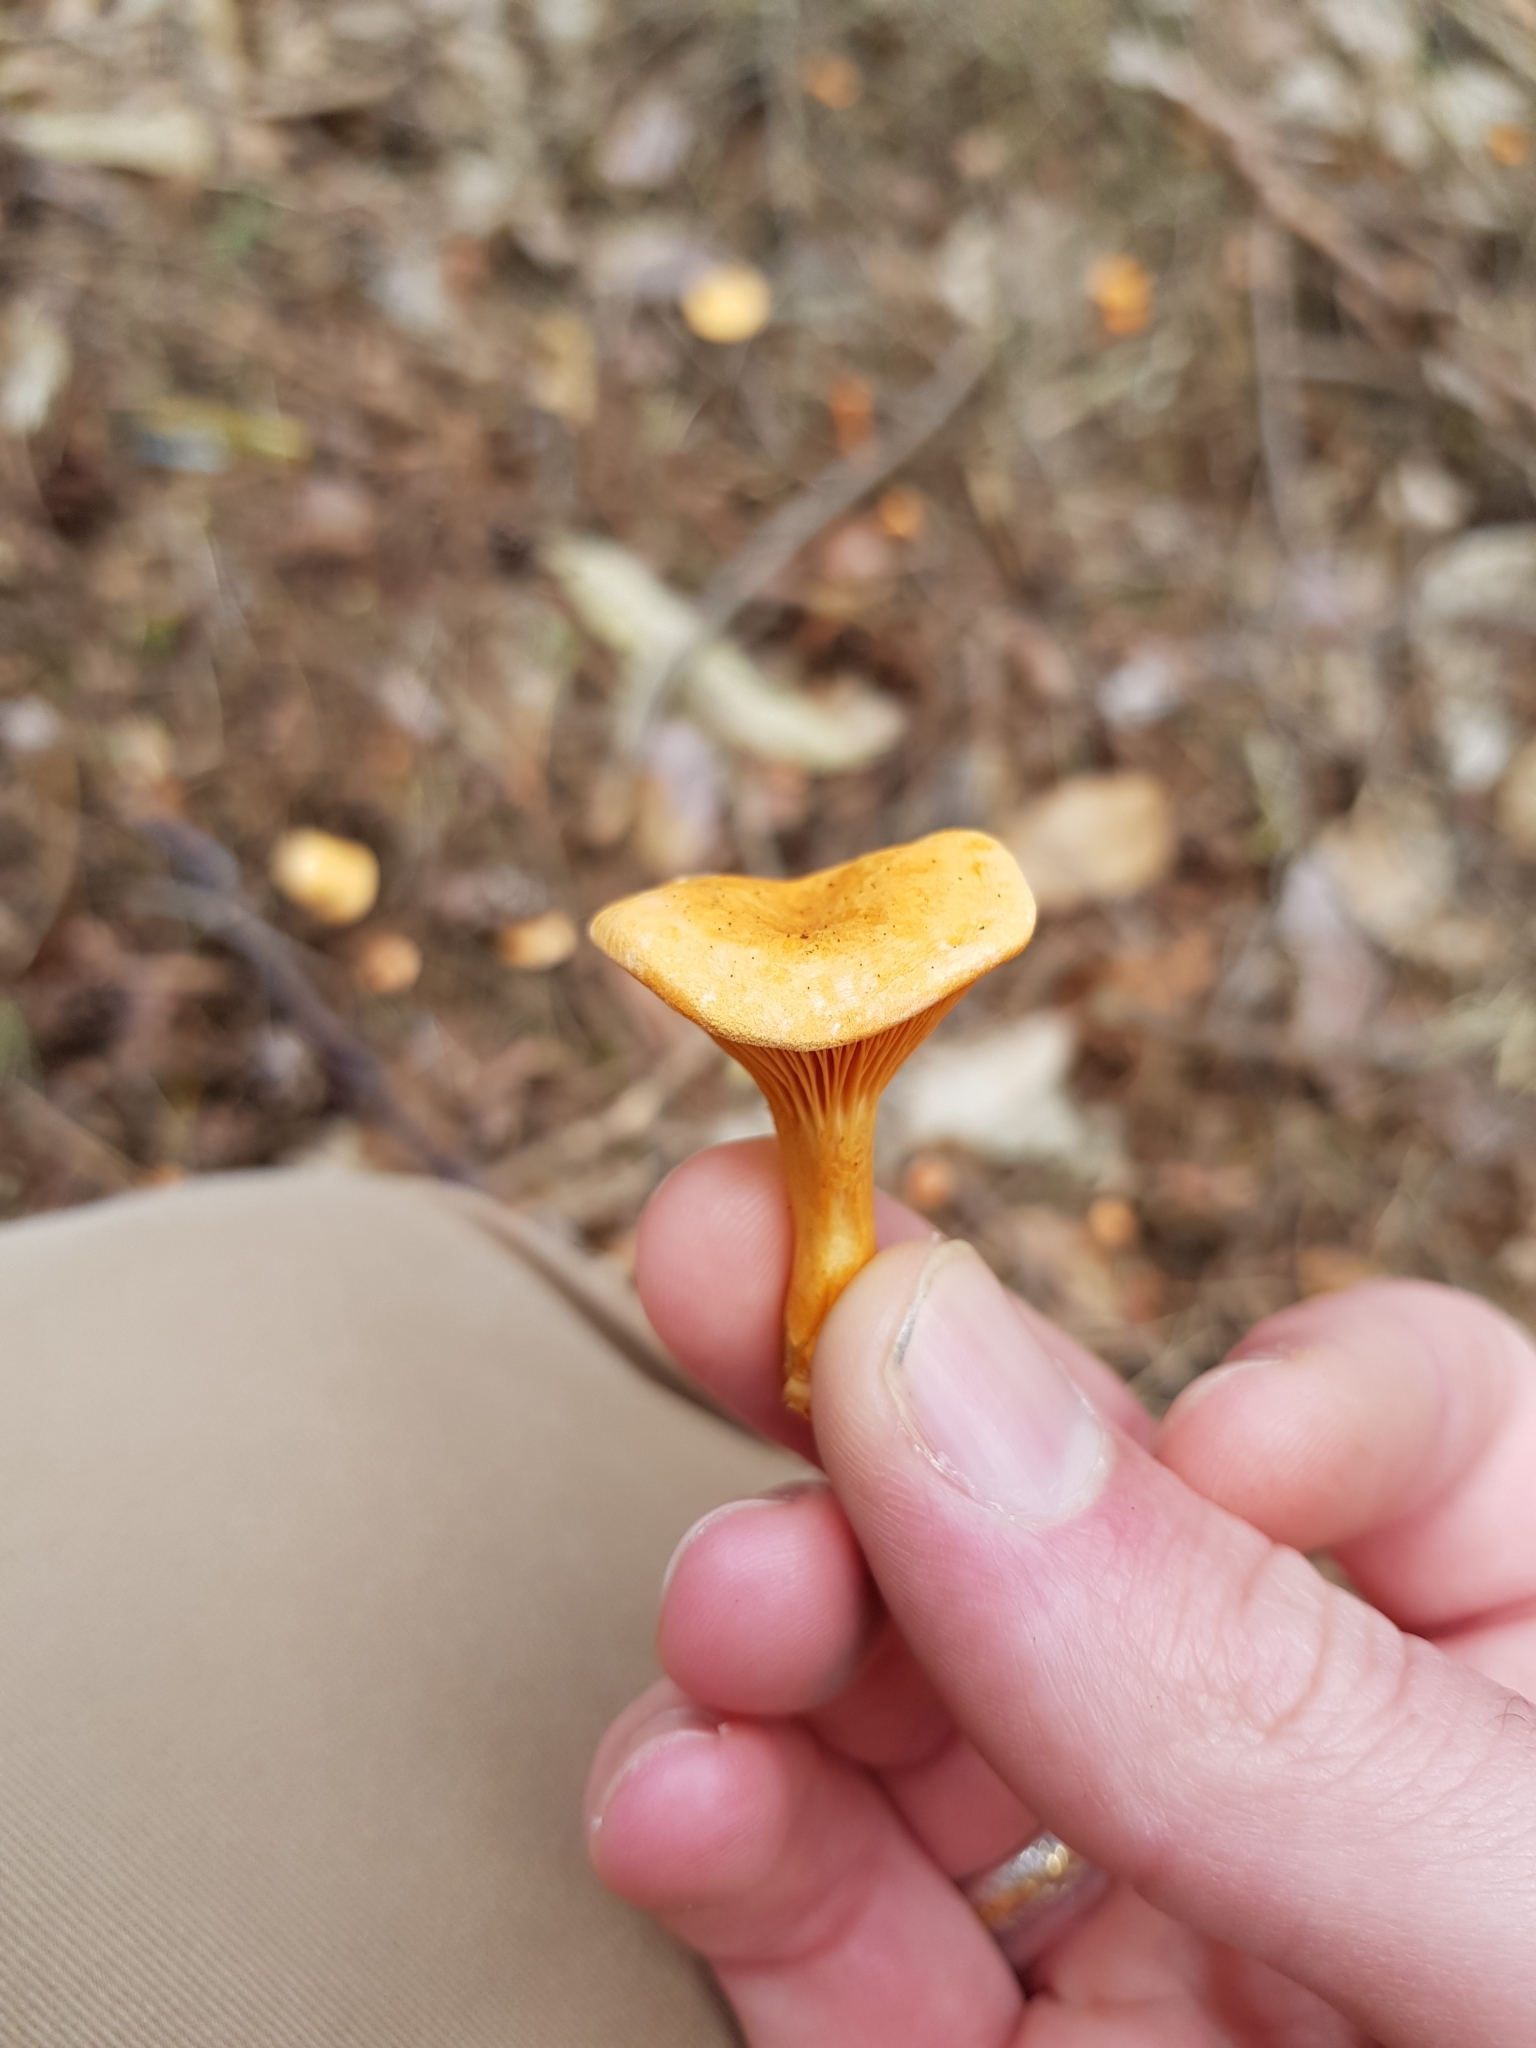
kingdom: Fungi
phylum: Basidiomycota
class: Agaricomycetes
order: Boletales
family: Hygrophoropsidaceae
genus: Hygrophoropsis
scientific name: Hygrophoropsis aurantiaca
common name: False chanterelle
